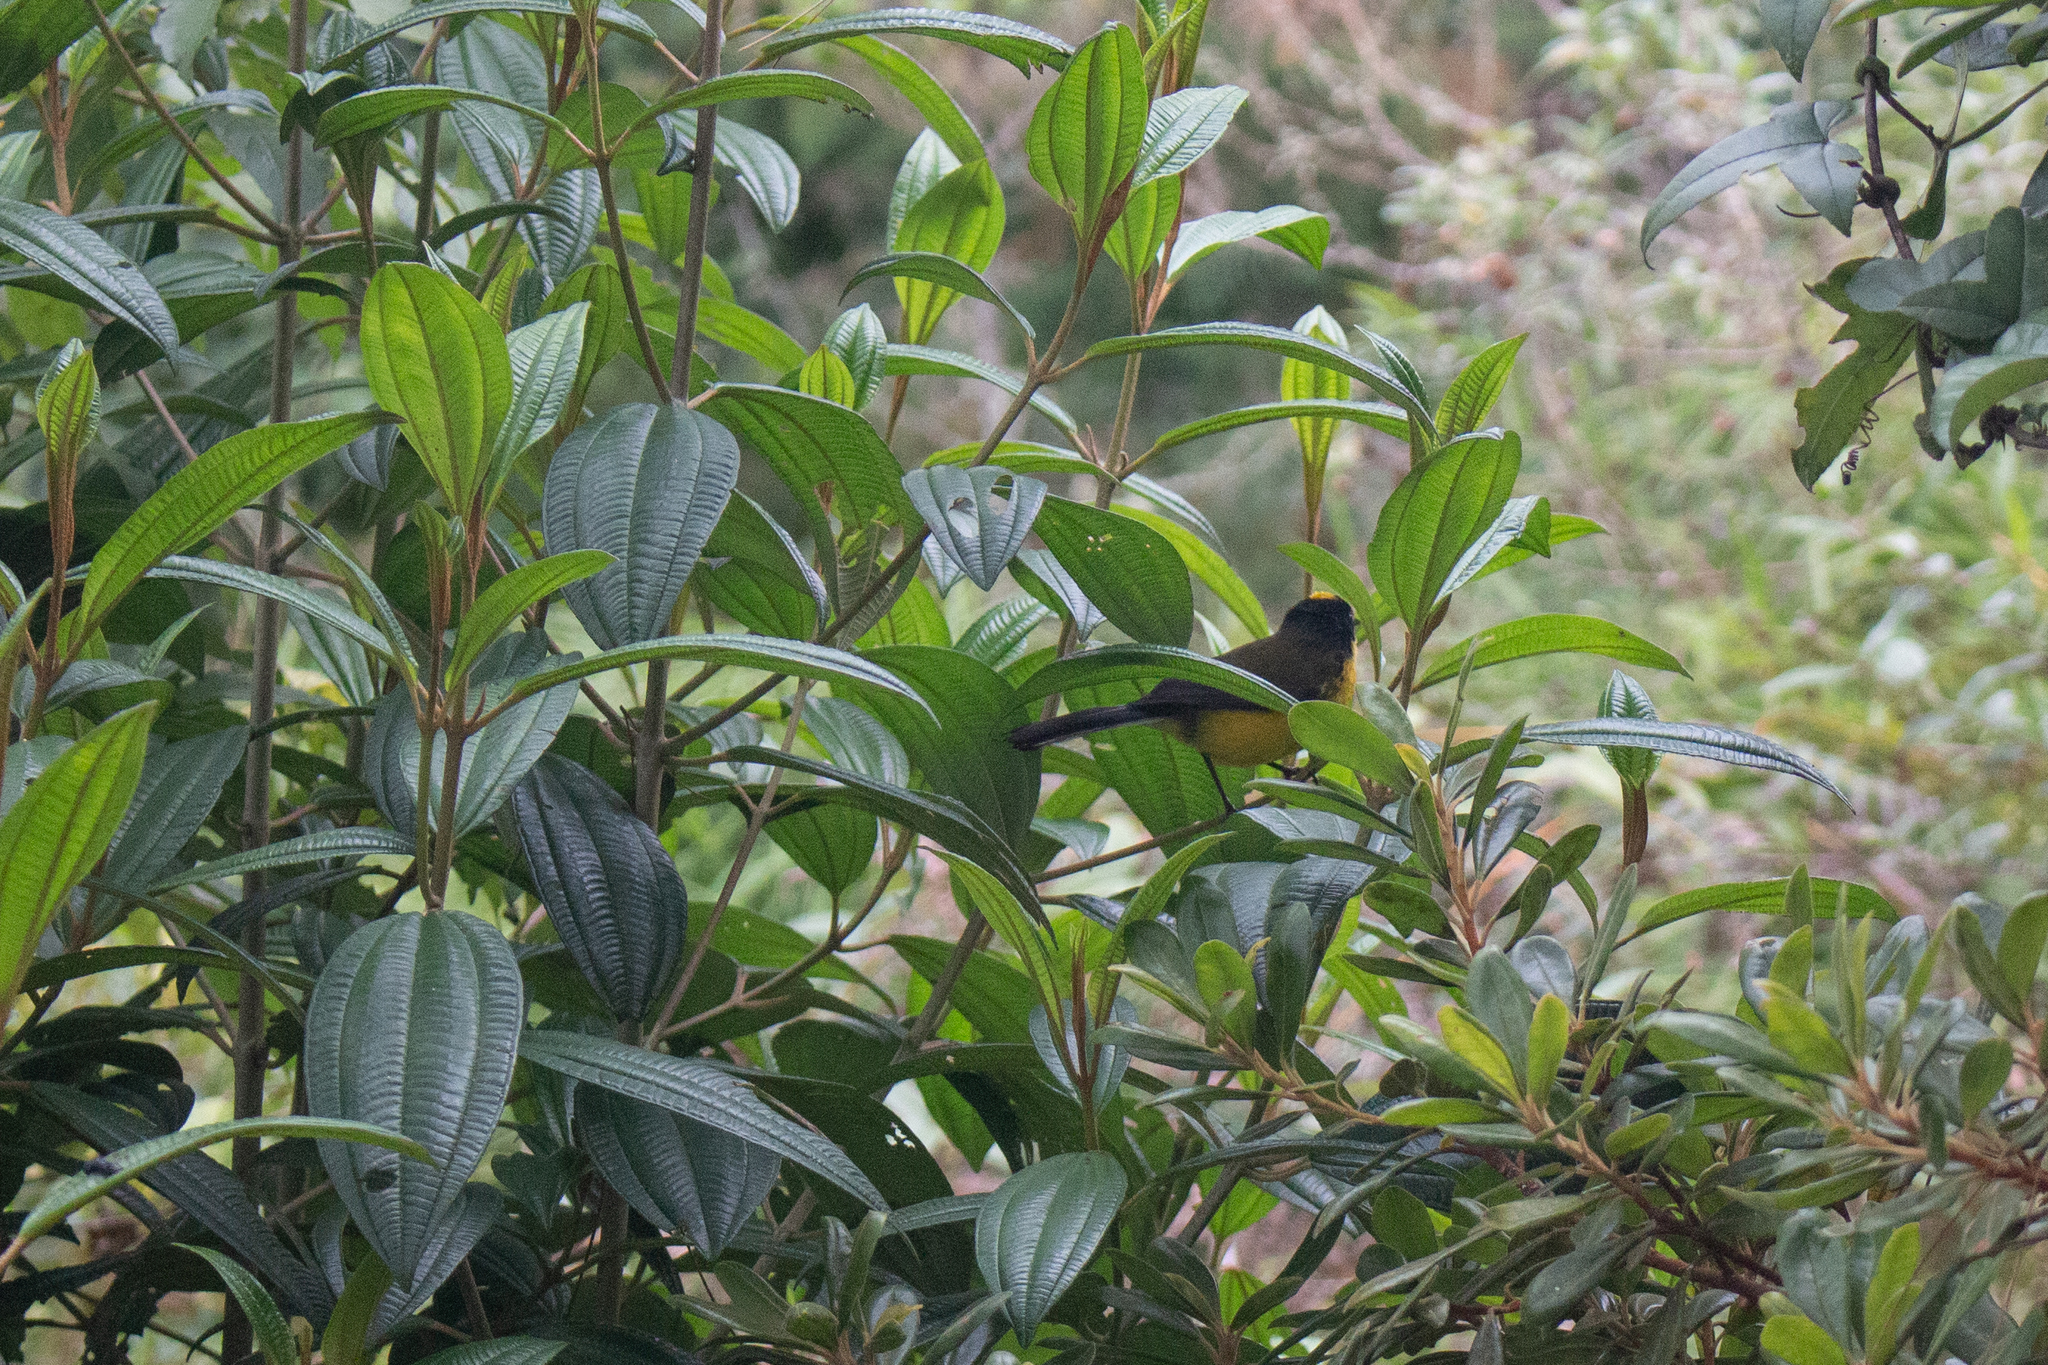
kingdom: Animalia
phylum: Chordata
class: Aves
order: Passeriformes
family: Parulidae
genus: Myioborus
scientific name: Myioborus flavivertex
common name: Yellow-crowned whitestart
